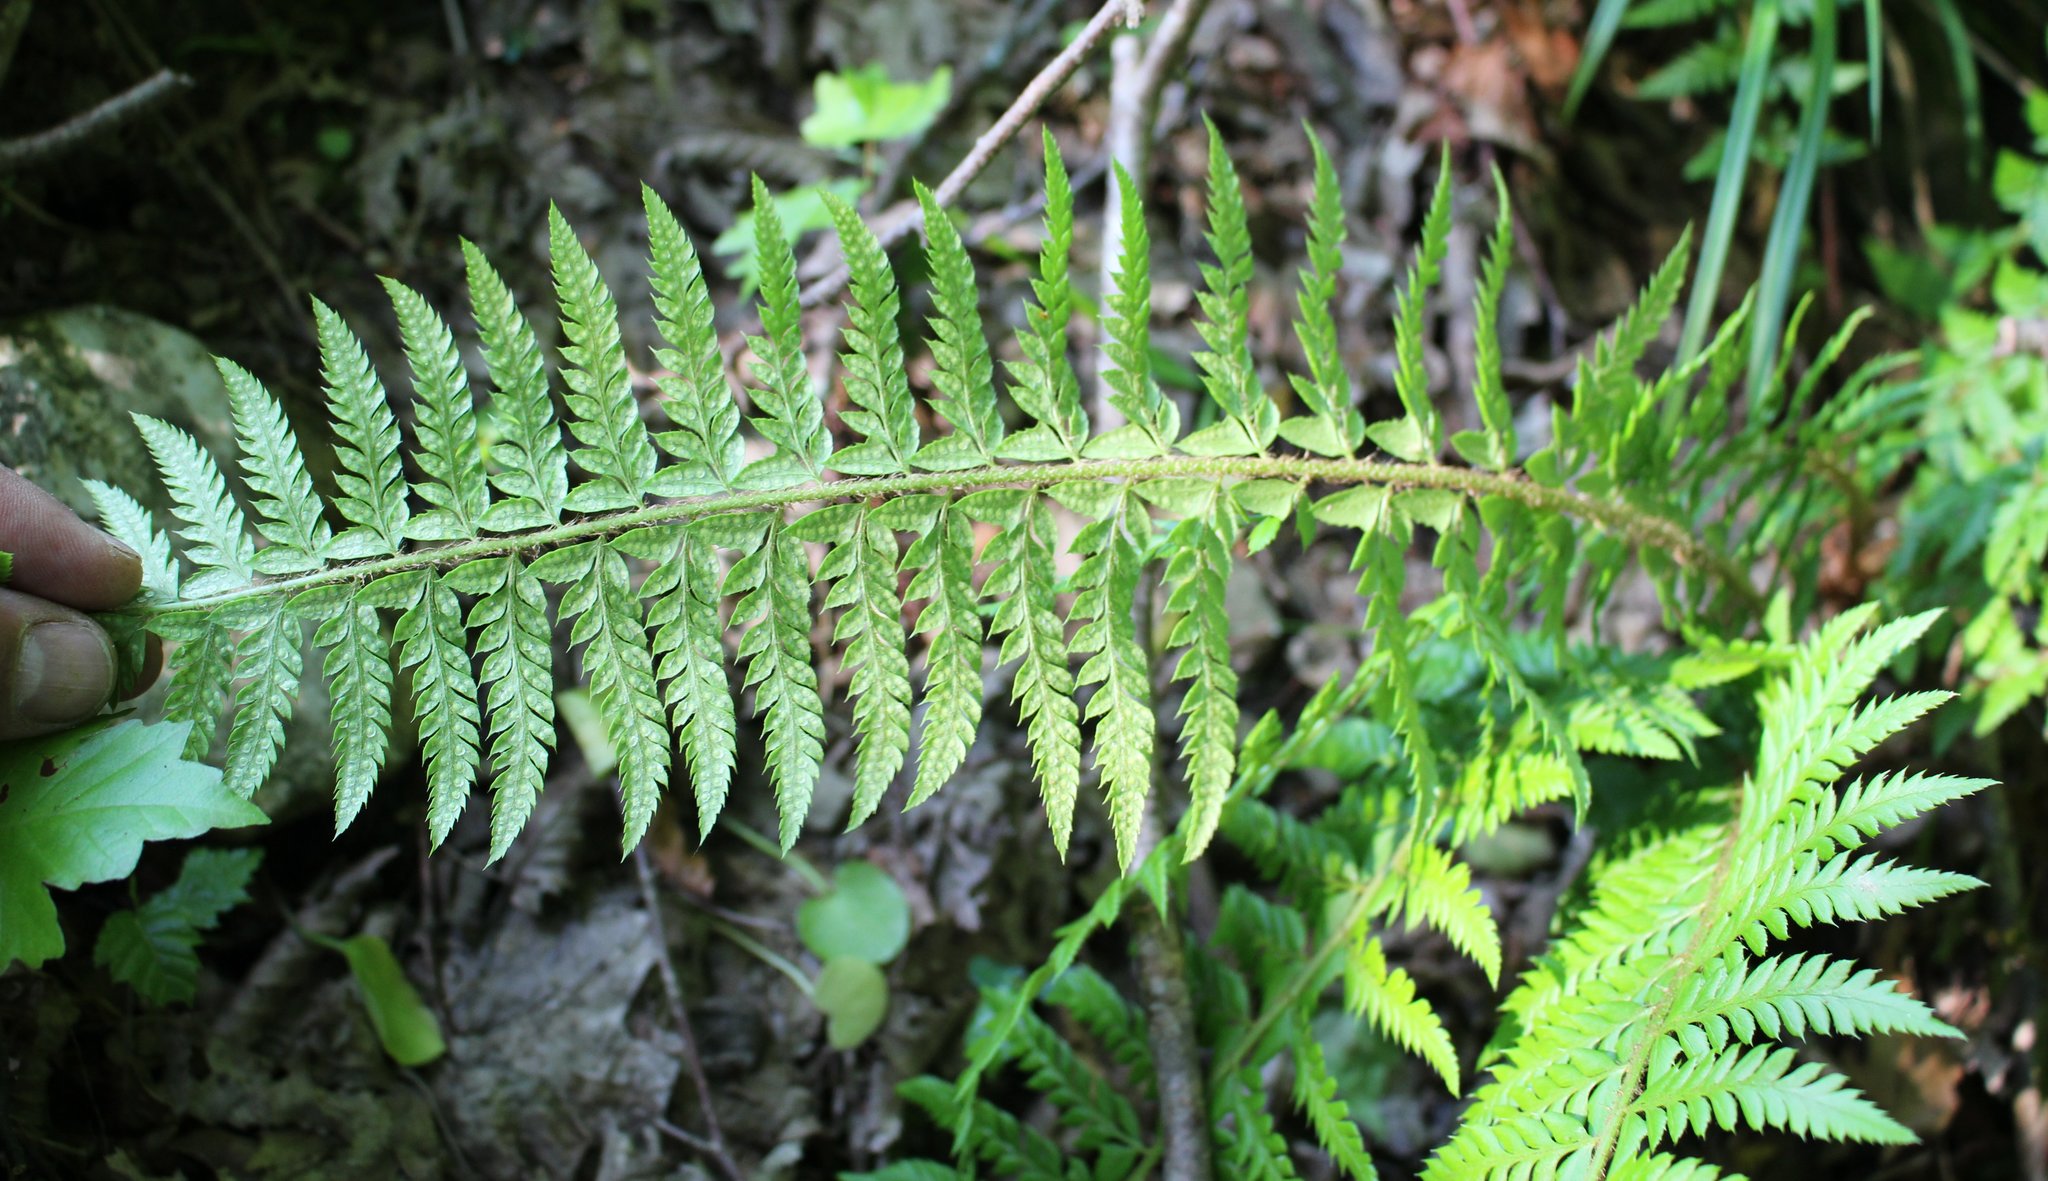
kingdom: Plantae
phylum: Tracheophyta
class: Polypodiopsida
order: Polypodiales
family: Dryopteridaceae
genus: Polystichum
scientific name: Polystichum aculeatum
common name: Hard shield-fern
